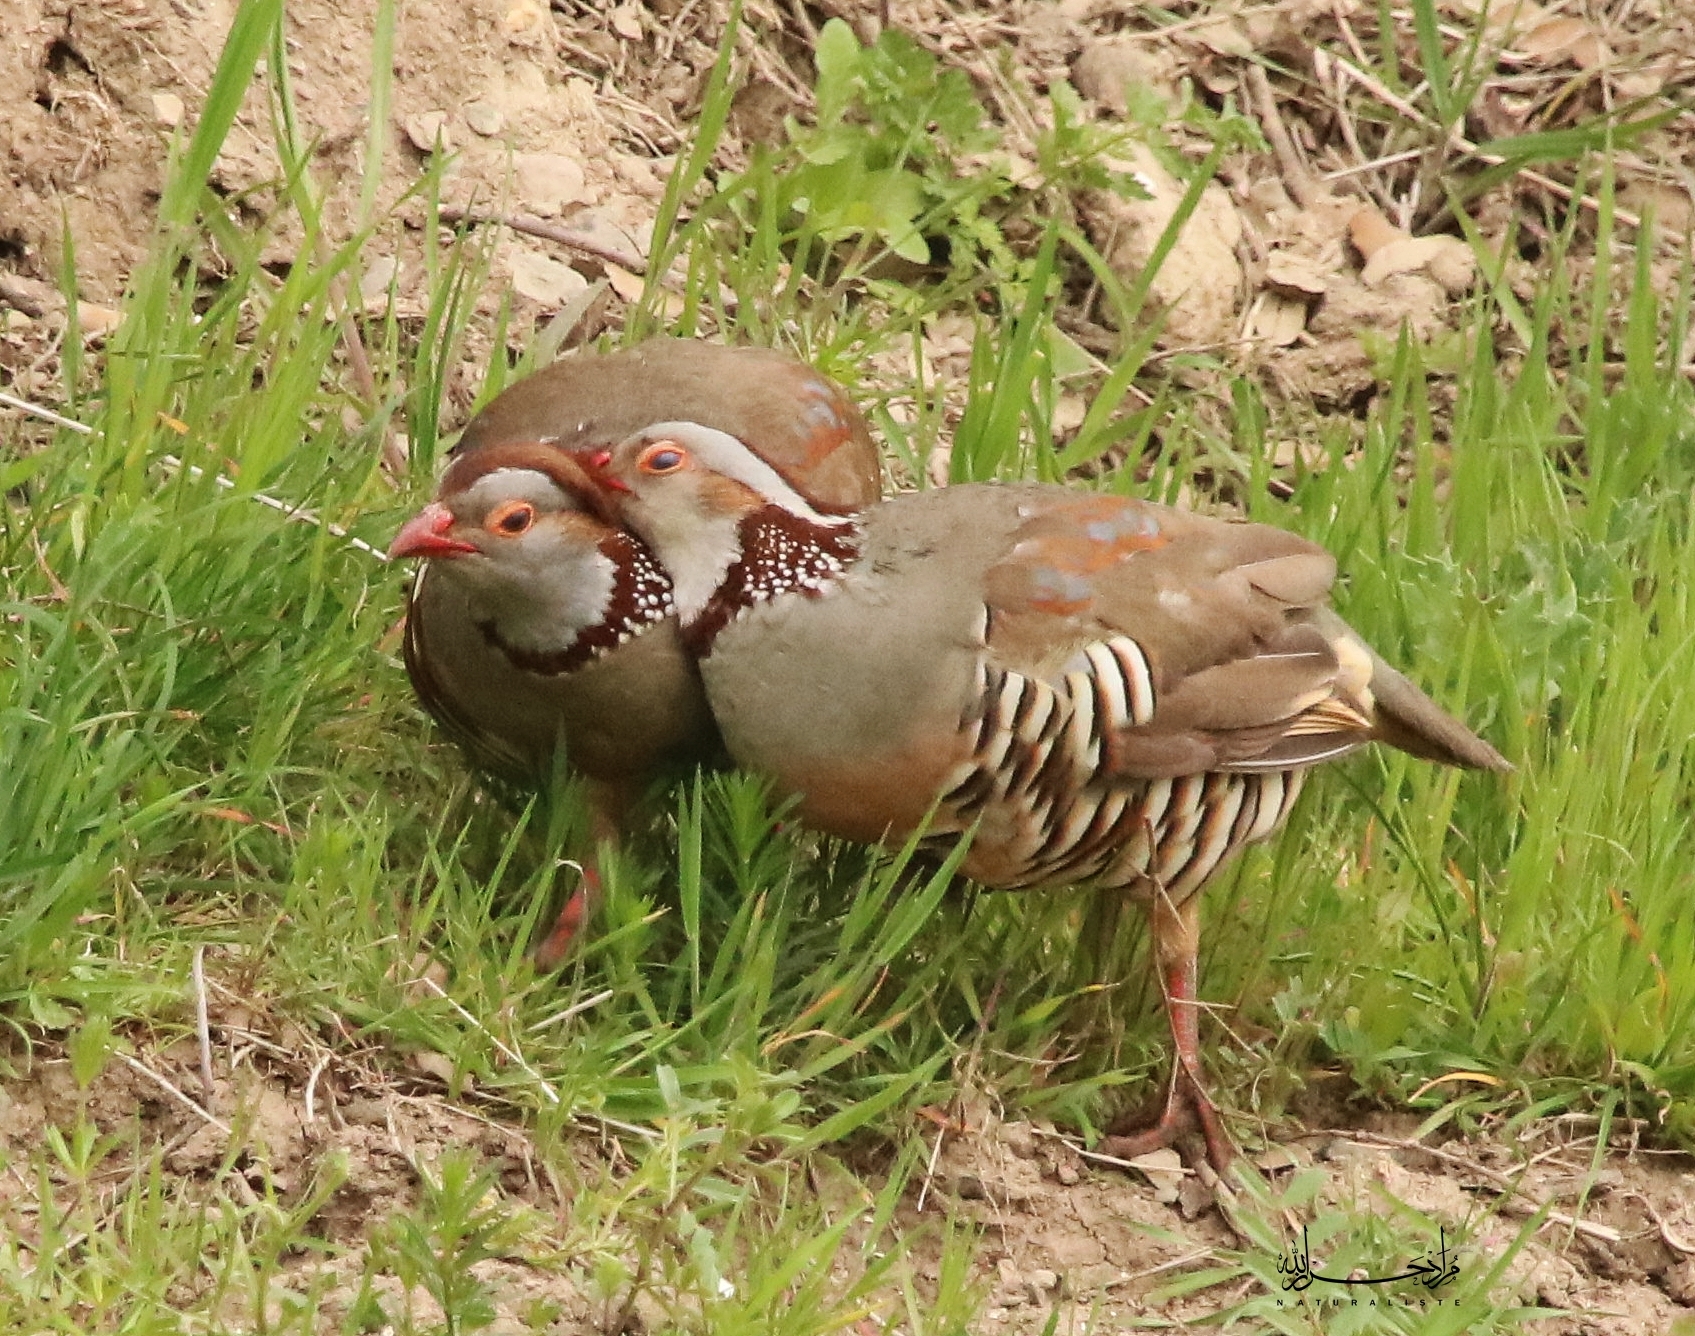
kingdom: Animalia
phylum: Chordata
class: Aves
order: Galliformes
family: Phasianidae
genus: Alectoris
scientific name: Alectoris barbara
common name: Barbary partridge
